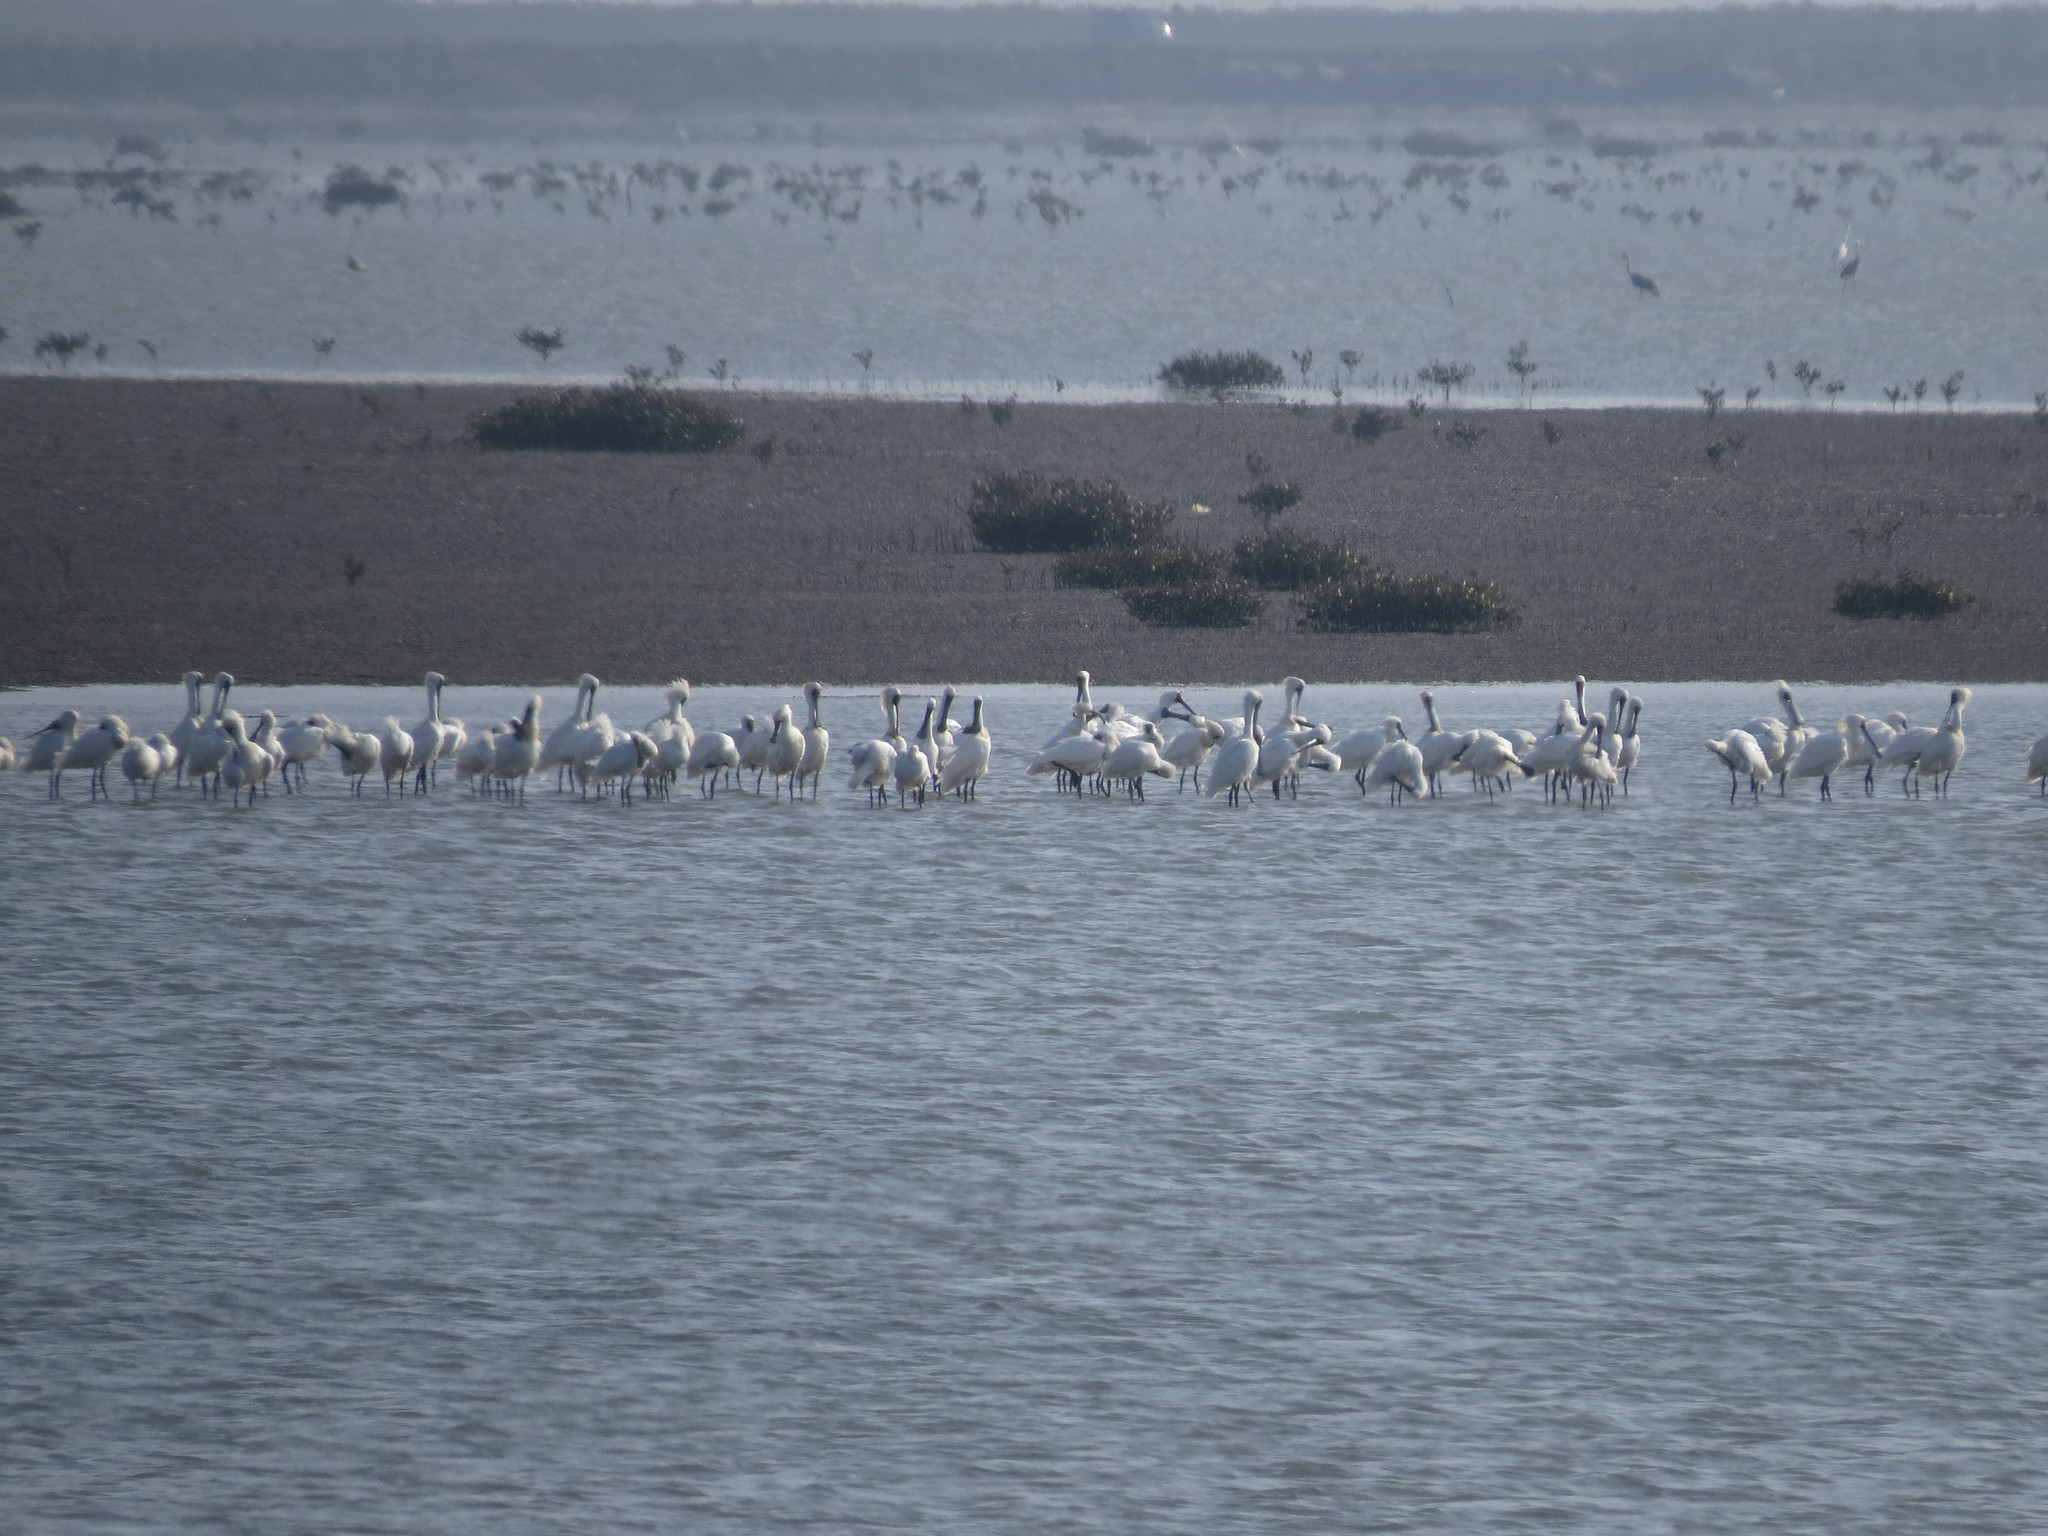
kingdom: Animalia
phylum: Chordata
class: Aves
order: Pelecaniformes
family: Threskiornithidae
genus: Platalea
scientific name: Platalea minor
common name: Black-faced spoonbill
